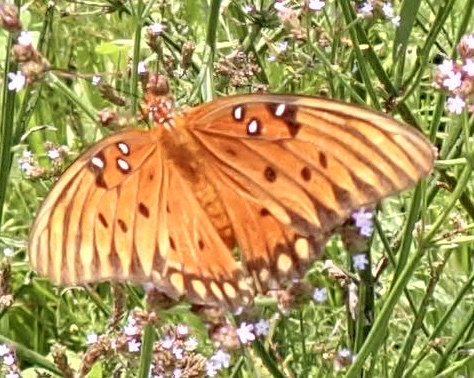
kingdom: Animalia
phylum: Arthropoda
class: Insecta
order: Lepidoptera
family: Nymphalidae
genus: Dione
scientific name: Dione vanillae
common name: Gulf fritillary
